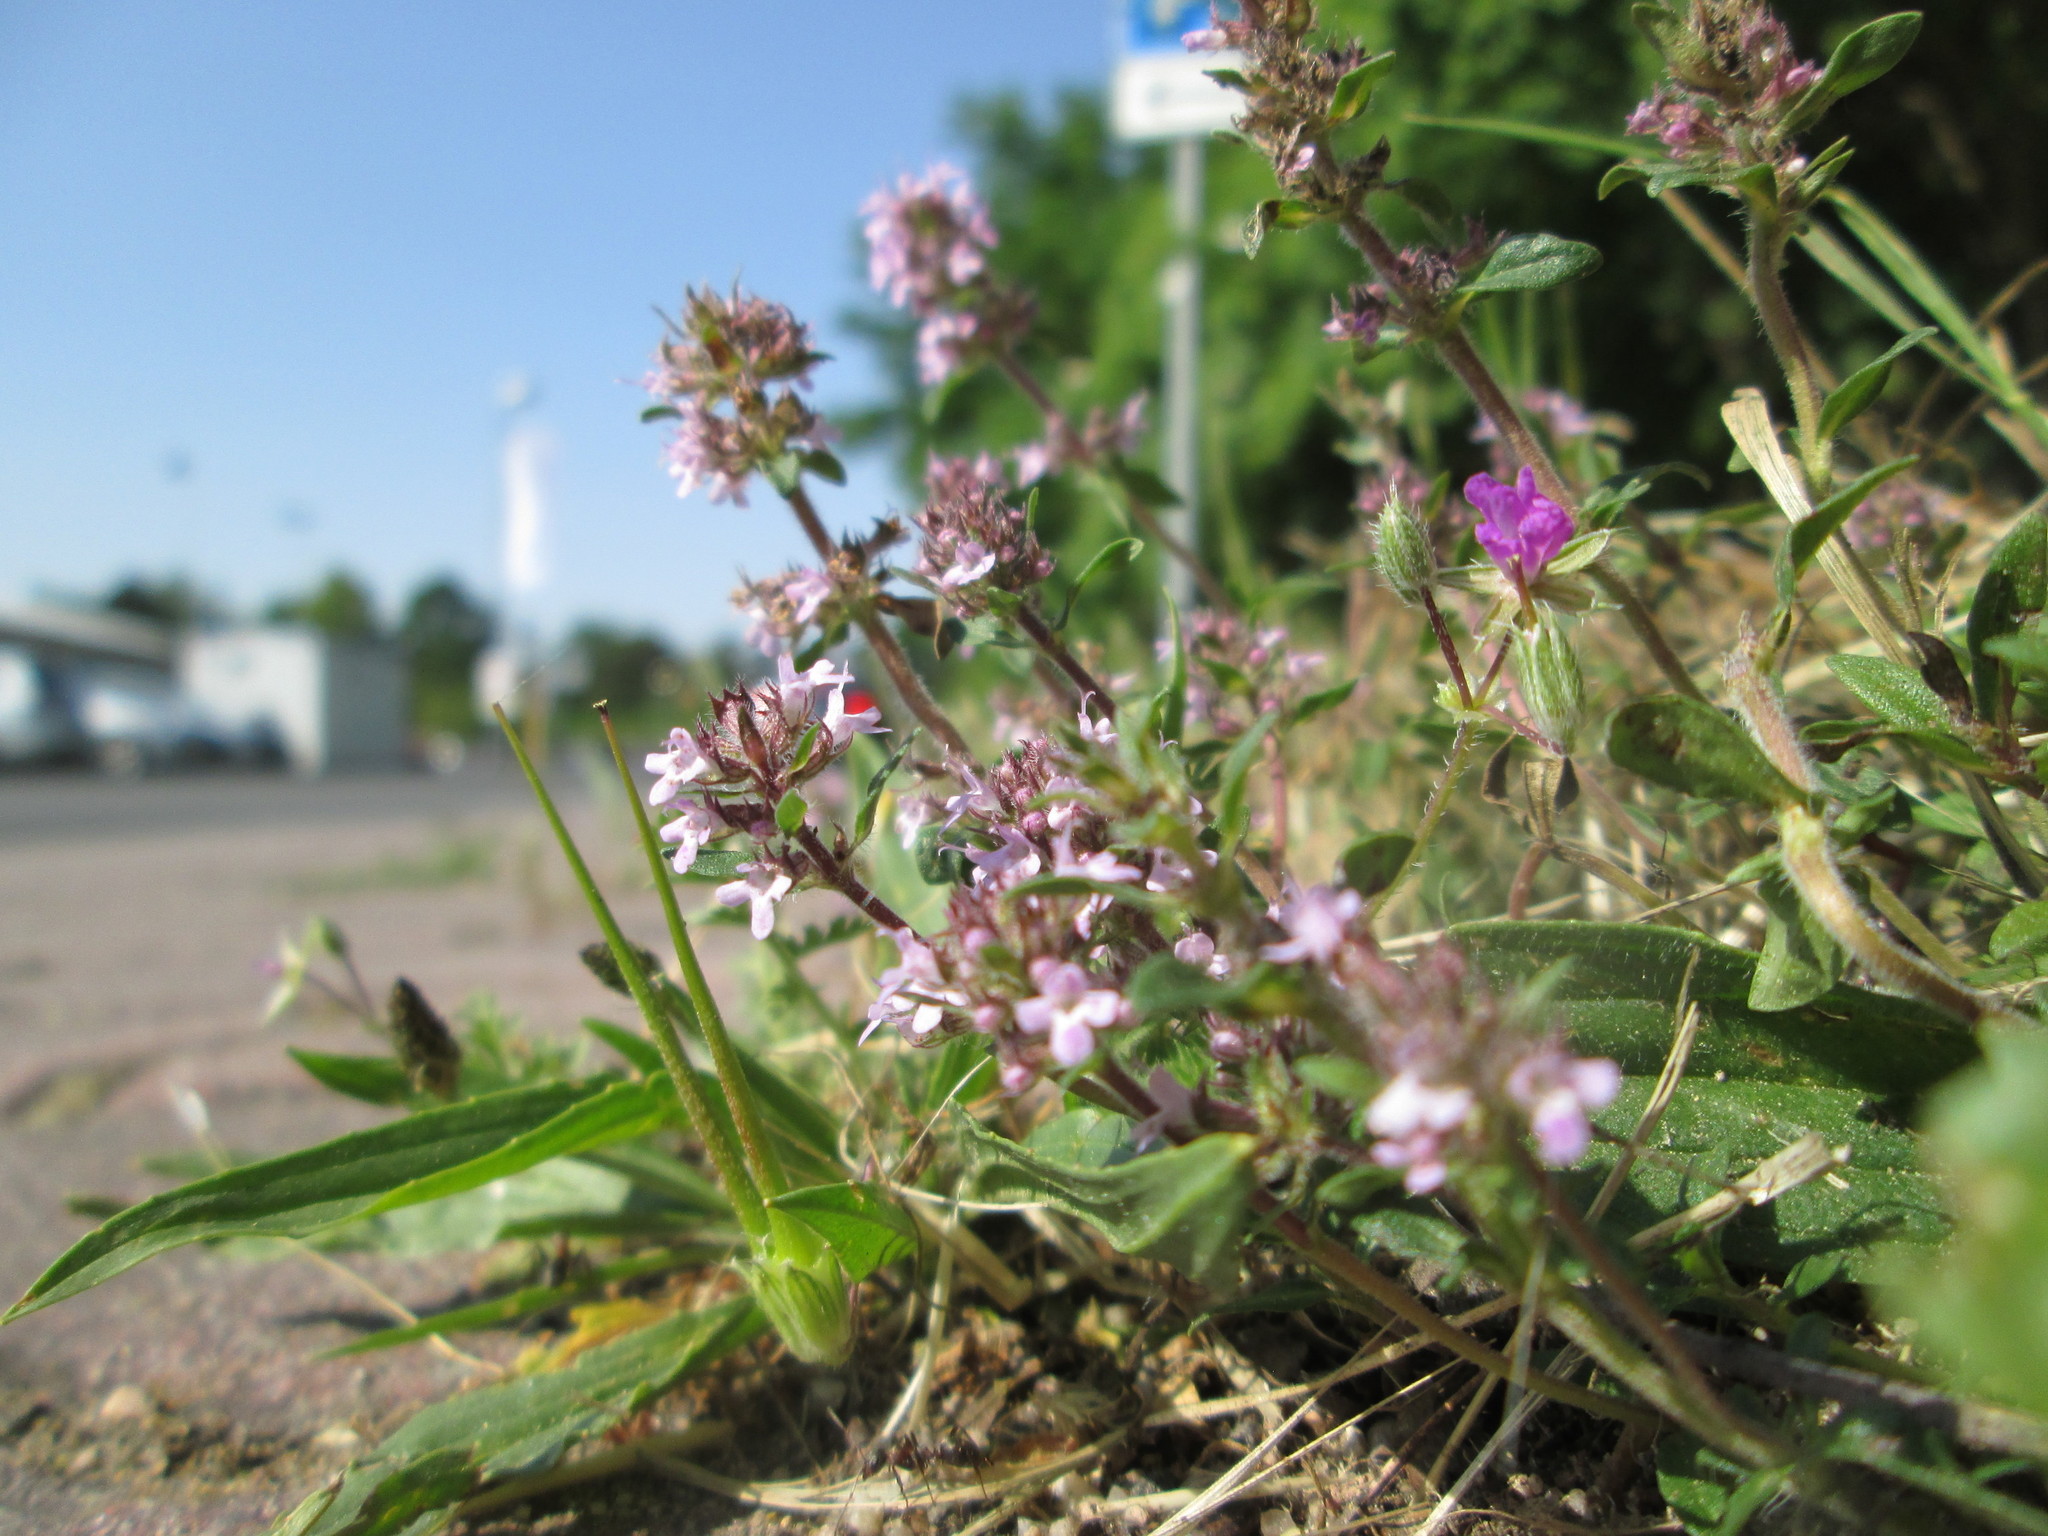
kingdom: Plantae
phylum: Tracheophyta
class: Magnoliopsida
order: Lamiales
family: Lamiaceae
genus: Thymus
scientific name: Thymus serpyllum
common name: Breckland thyme
